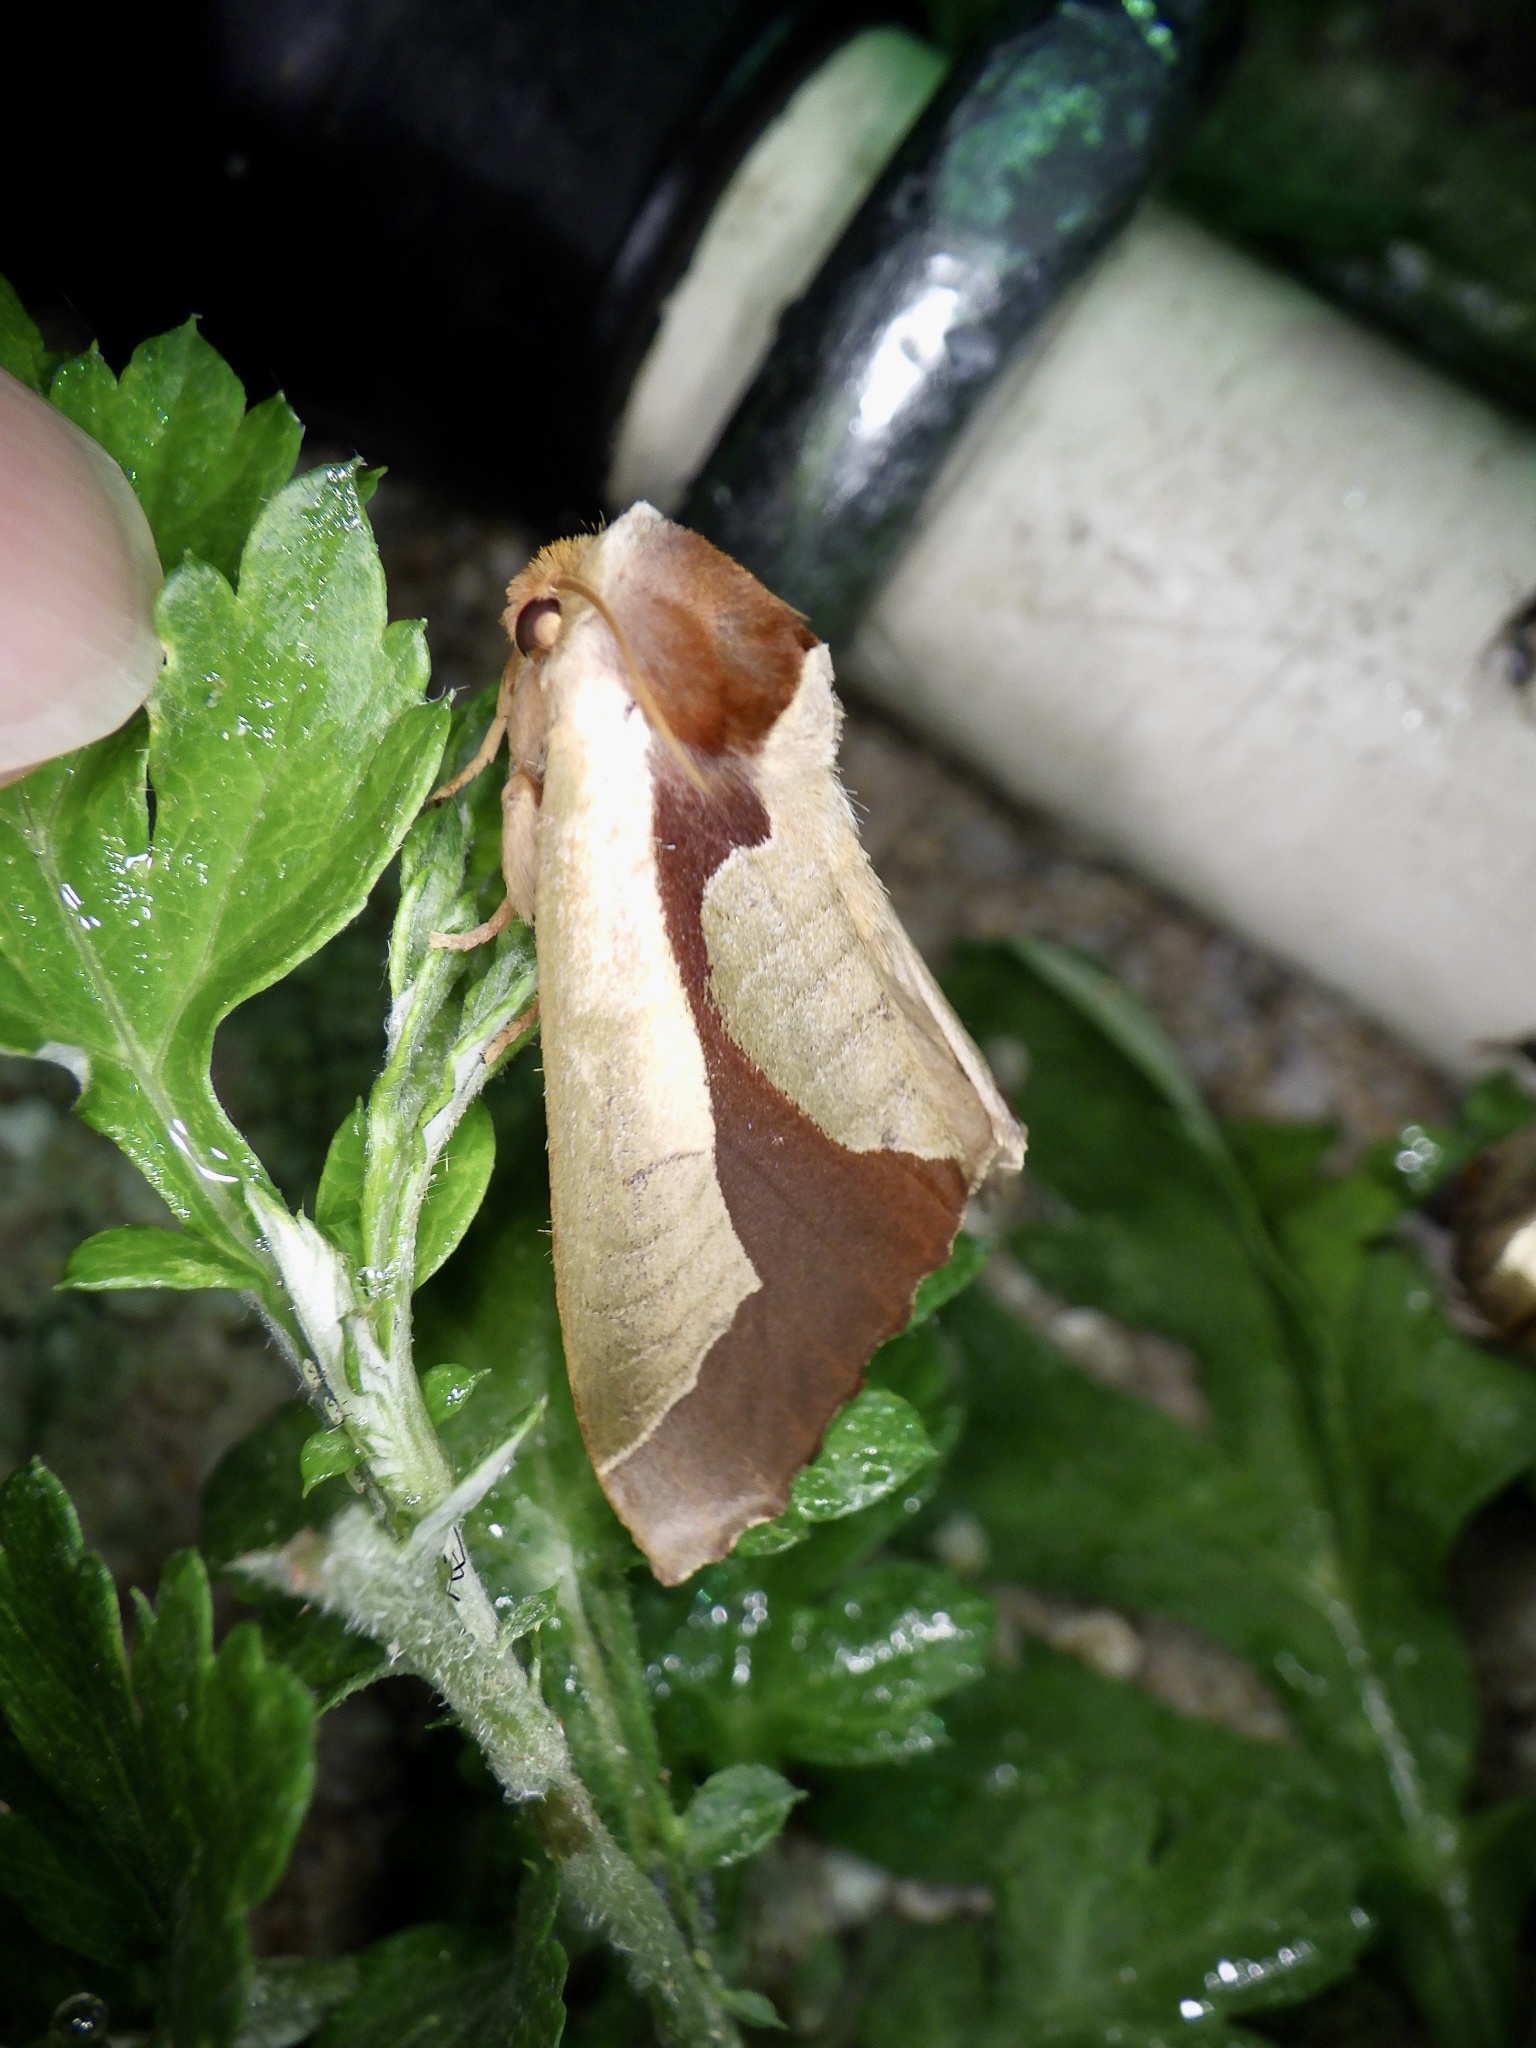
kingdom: Animalia
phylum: Arthropoda
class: Insecta
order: Lepidoptera
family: Notodontidae
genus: Uropyia
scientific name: Uropyia meticulodina
